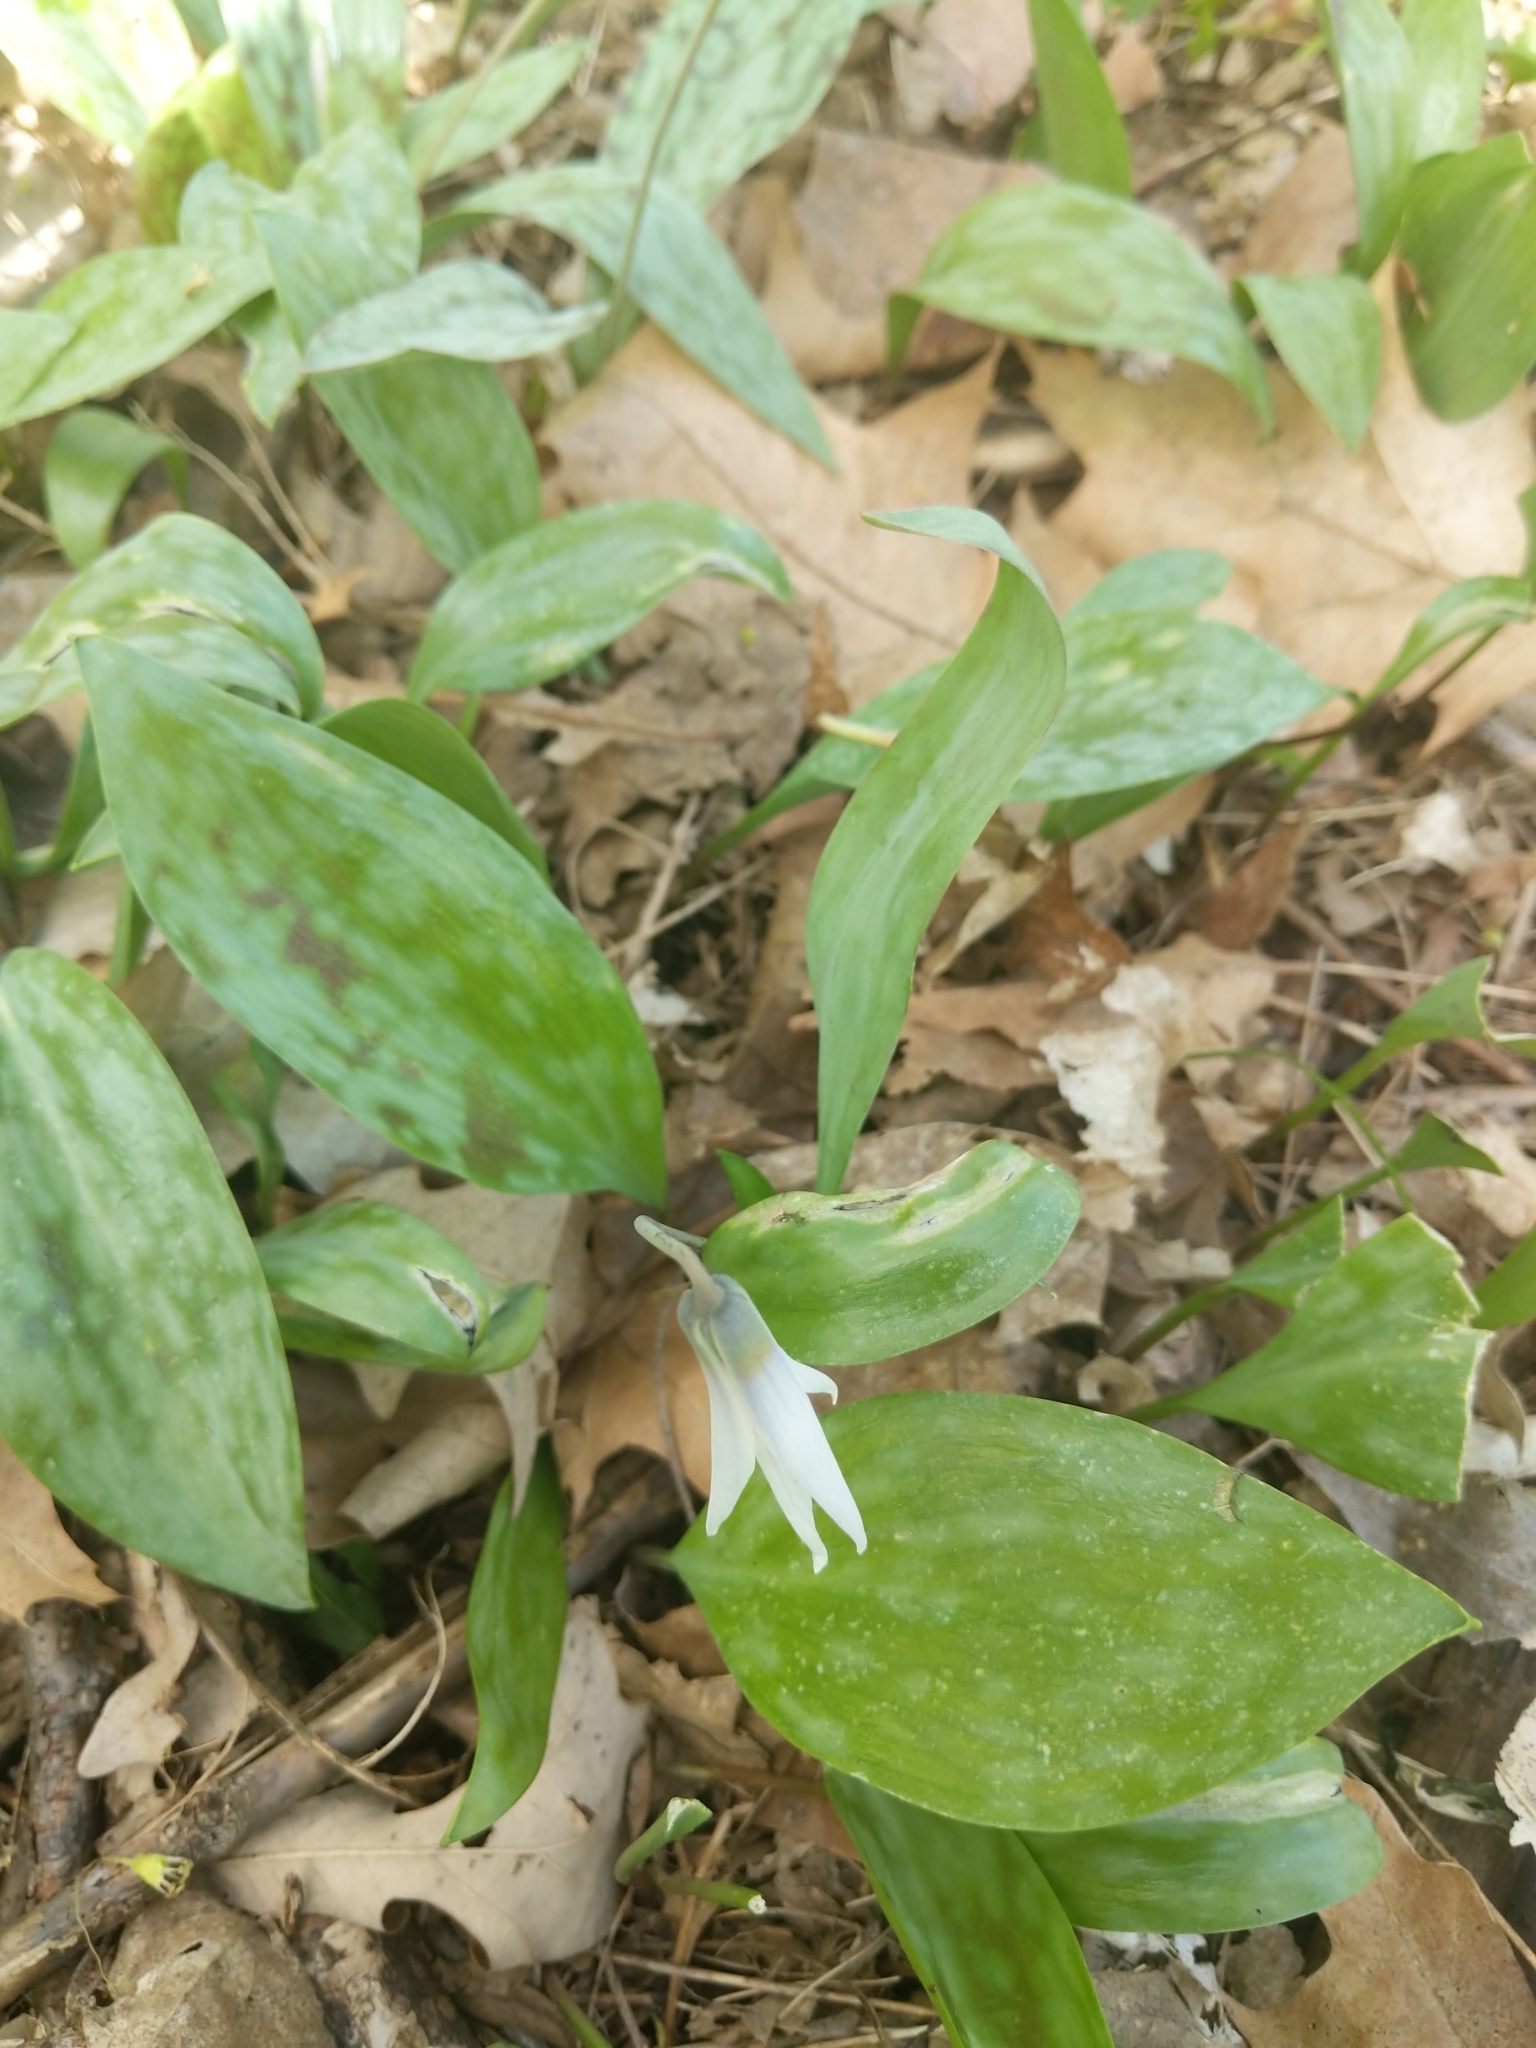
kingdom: Plantae
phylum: Tracheophyta
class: Liliopsida
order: Liliales
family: Liliaceae
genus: Erythronium
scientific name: Erythronium albidum
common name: White trout-lily
